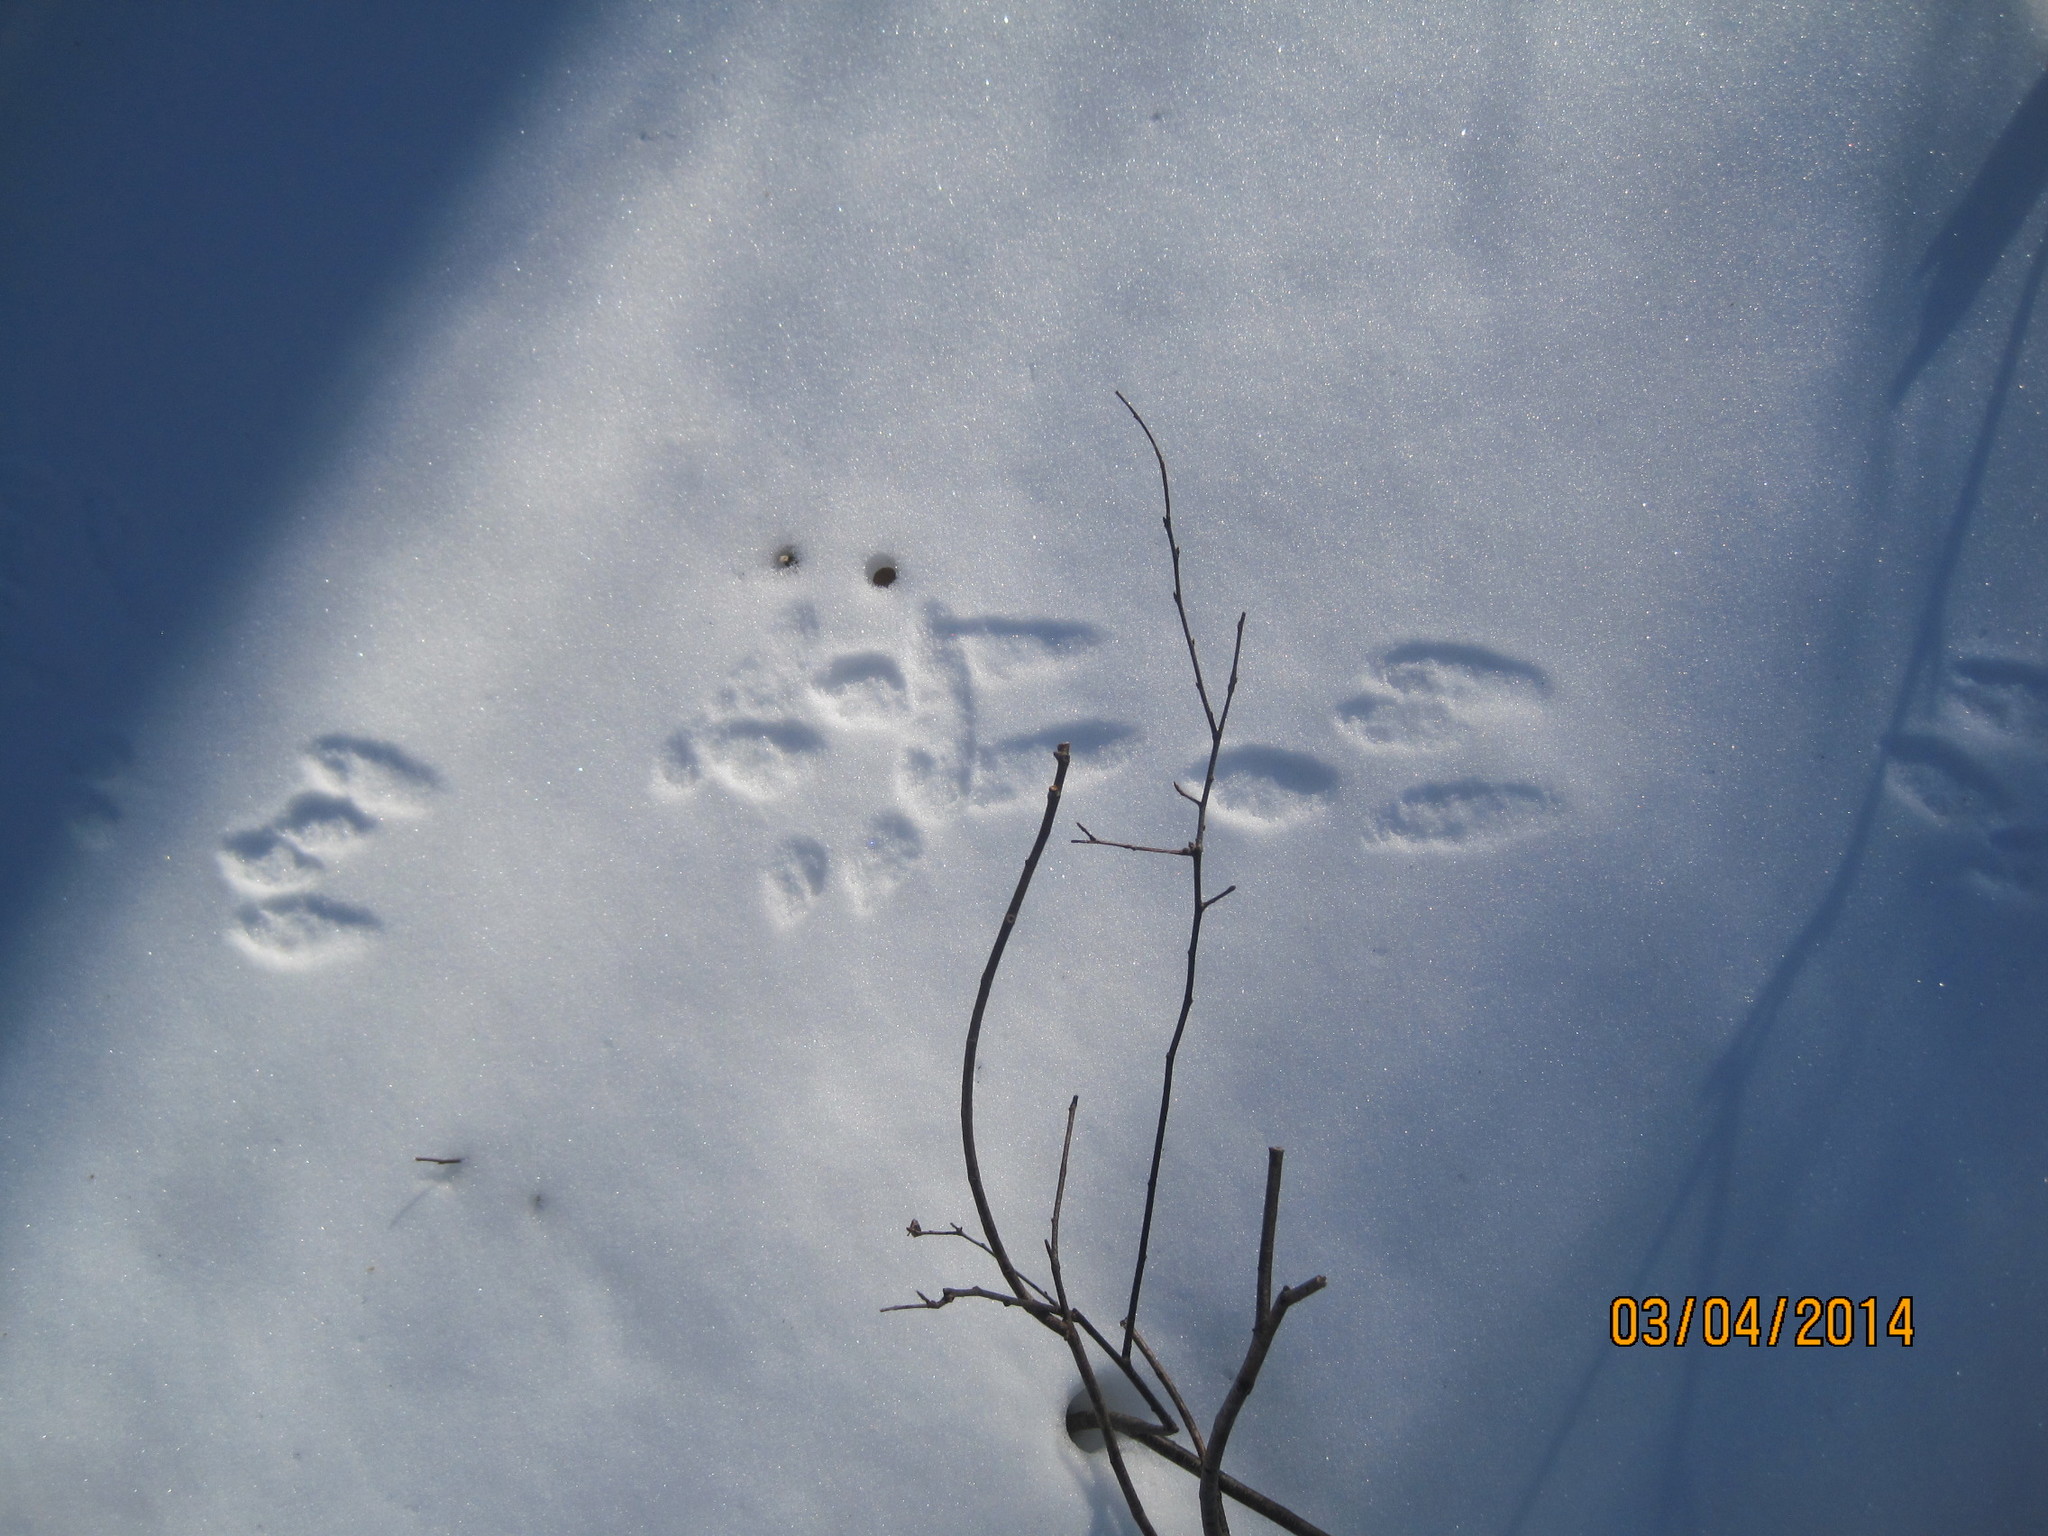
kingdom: Animalia
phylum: Chordata
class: Mammalia
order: Lagomorpha
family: Leporidae
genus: Sylvilagus
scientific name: Sylvilagus floridanus
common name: Eastern cottontail
